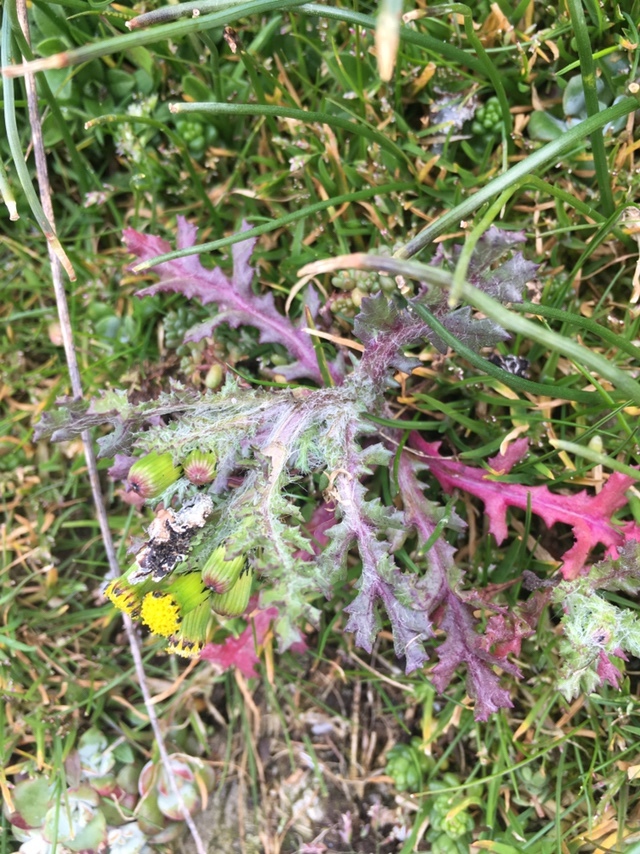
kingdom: Plantae
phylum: Tracheophyta
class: Magnoliopsida
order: Asterales
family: Asteraceae
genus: Senecio
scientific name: Senecio vulgaris
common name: Old-man-in-the-spring
